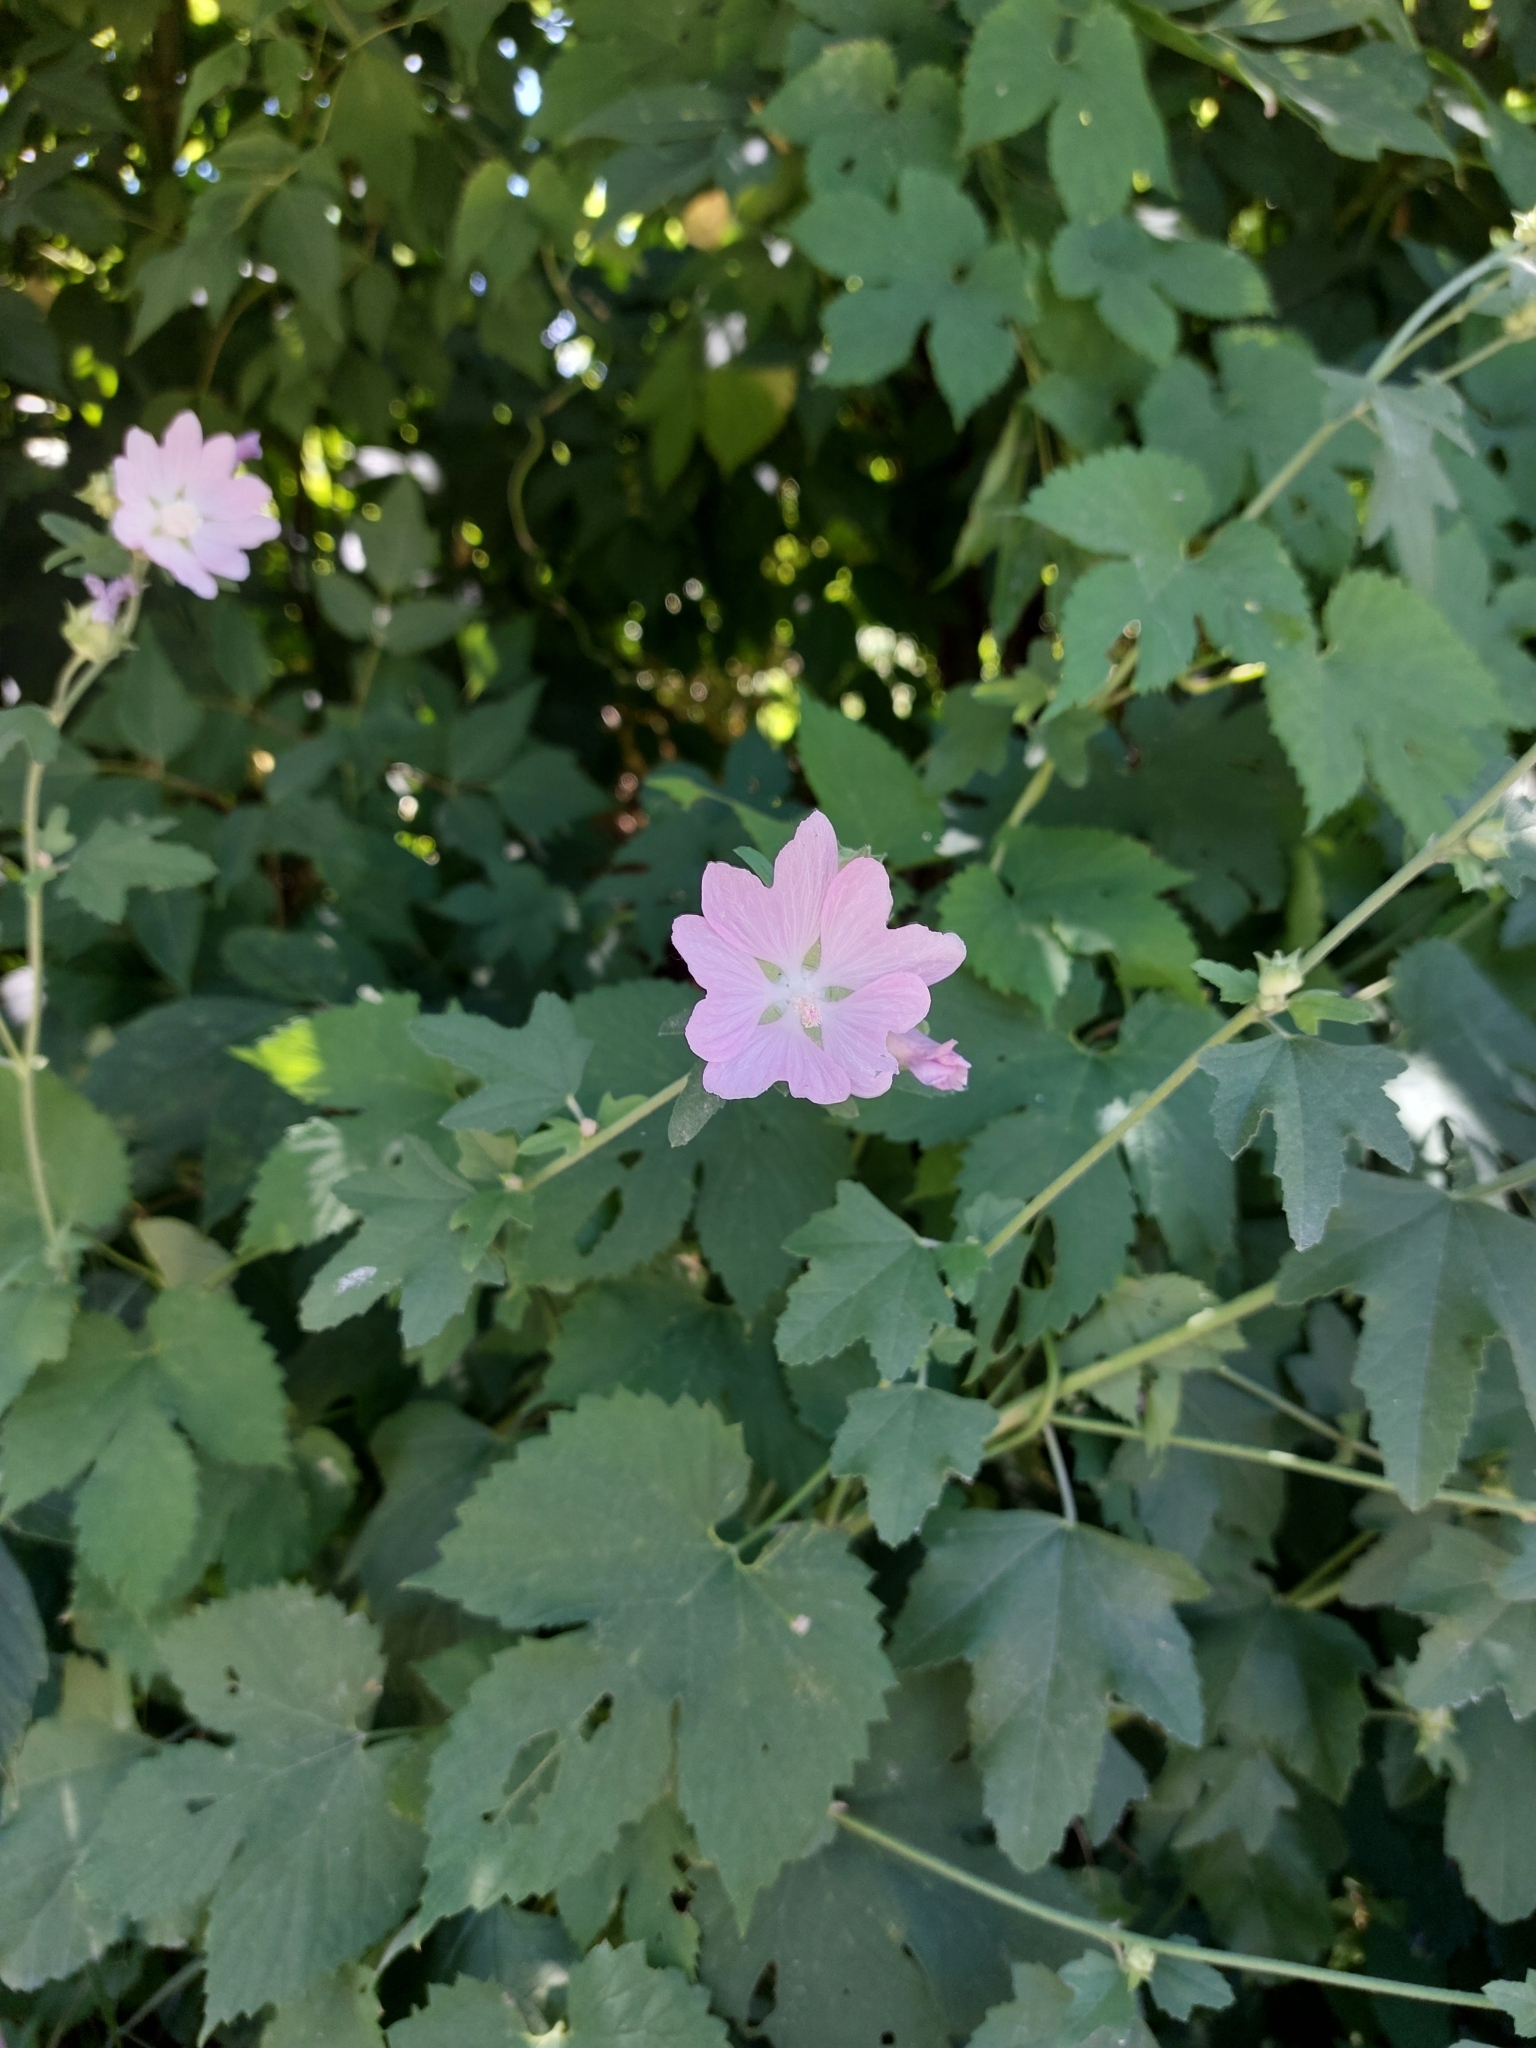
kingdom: Plantae
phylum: Tracheophyta
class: Magnoliopsida
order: Malvales
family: Malvaceae
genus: Malva
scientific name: Malva thuringiaca
